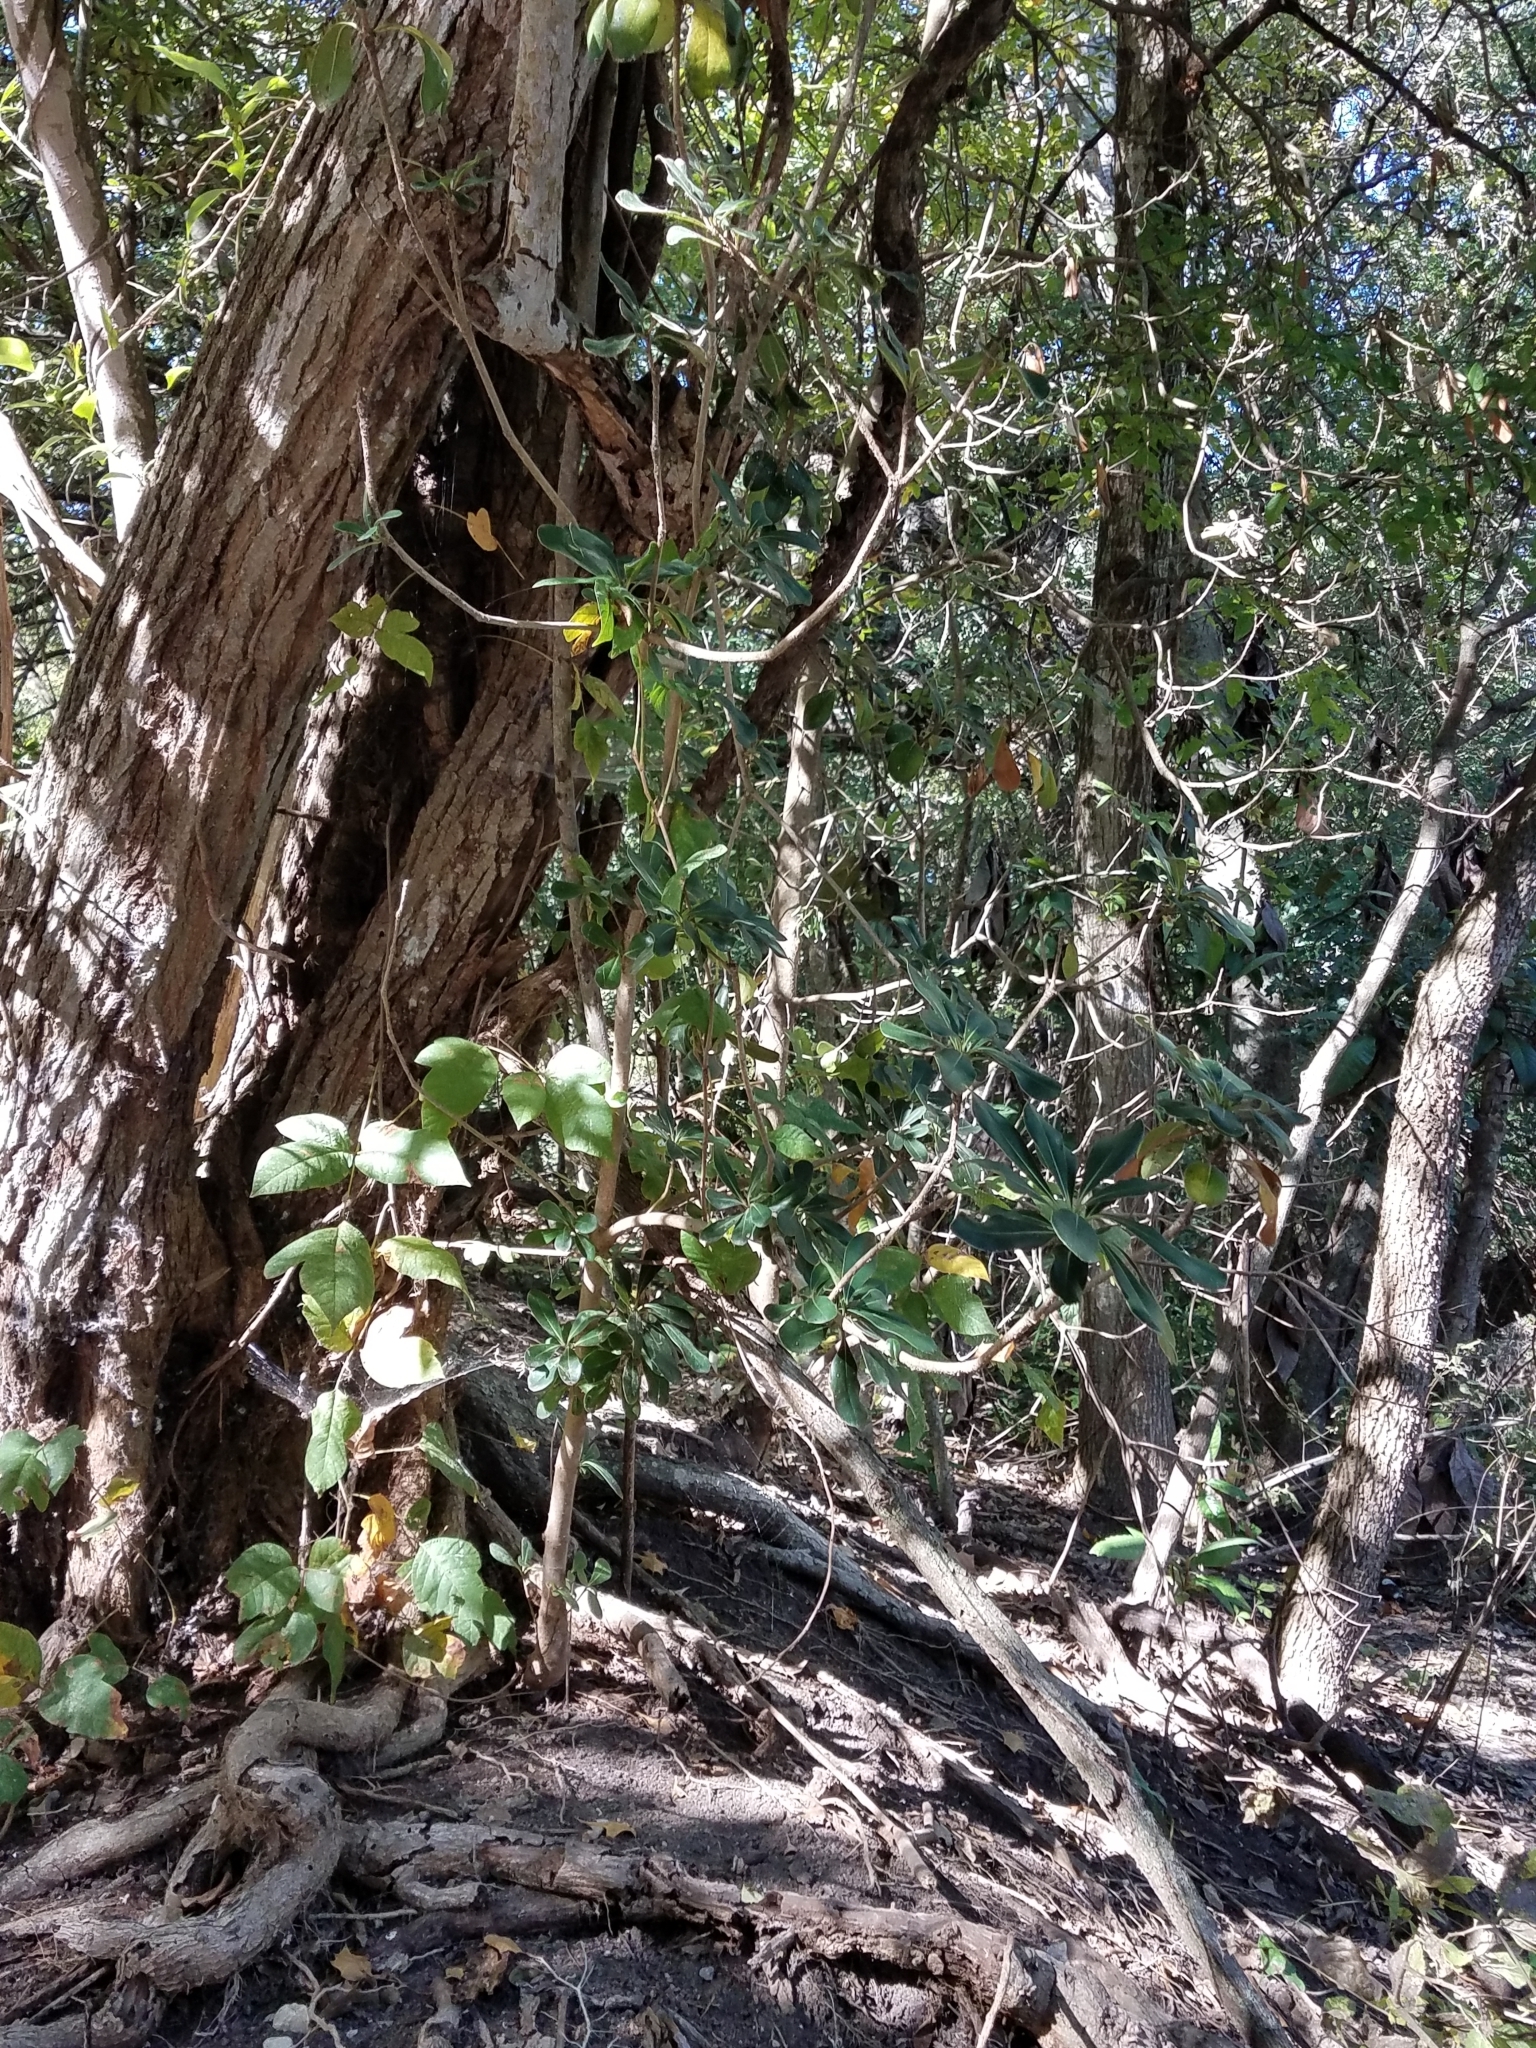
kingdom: Plantae
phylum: Tracheophyta
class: Magnoliopsida
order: Apiales
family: Pittosporaceae
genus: Pittosporum
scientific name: Pittosporum tobira
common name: Japanese cheesewood
